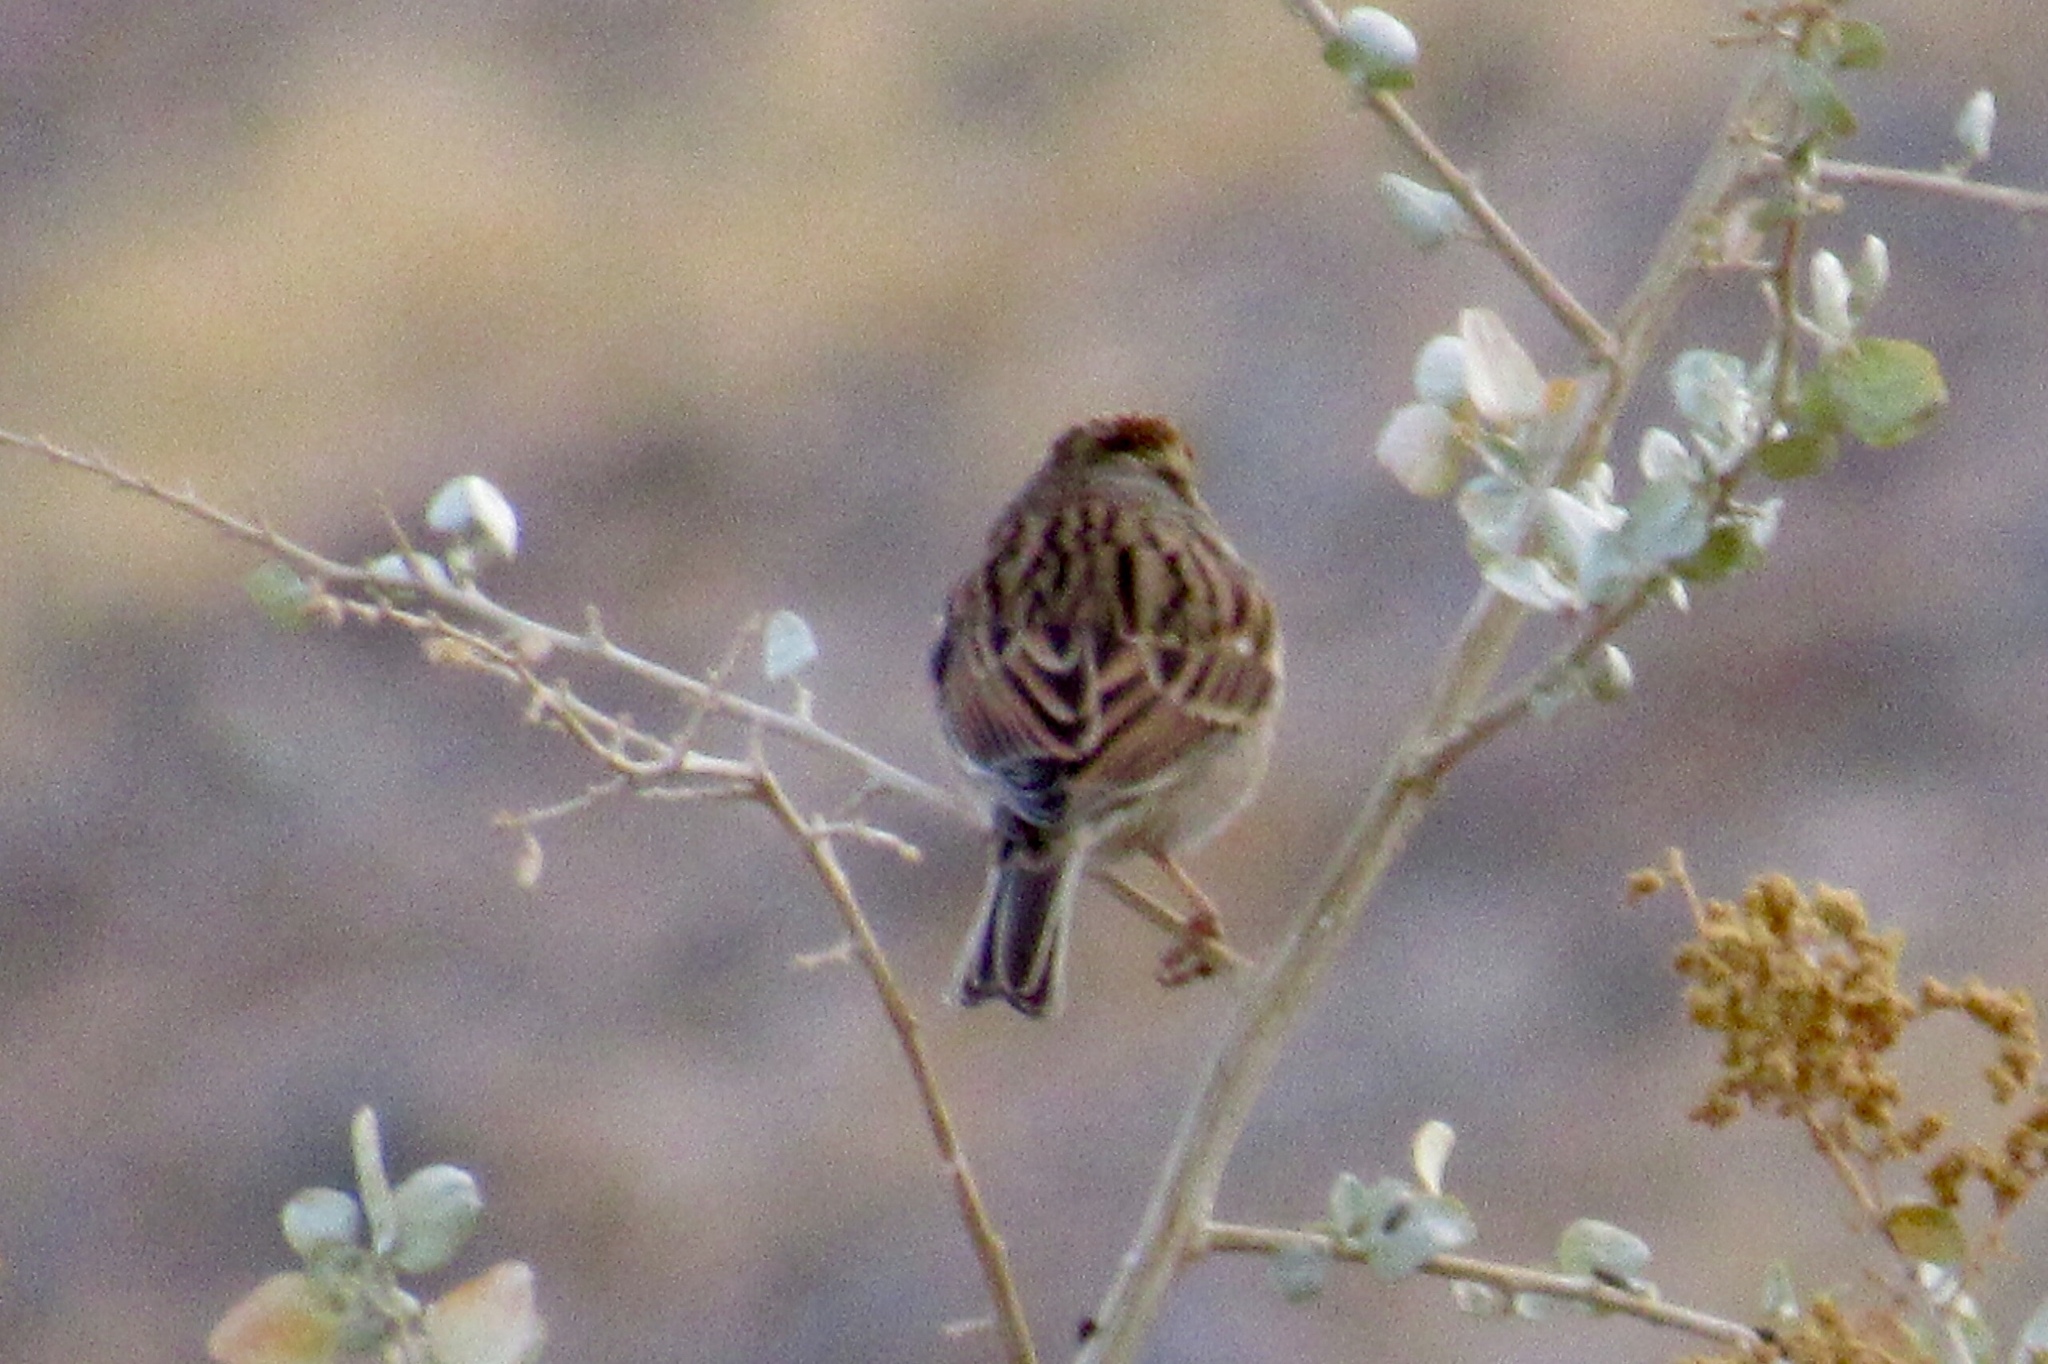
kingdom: Animalia
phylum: Chordata
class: Aves
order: Passeriformes
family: Passerellidae
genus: Spizella
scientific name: Spizella passerina
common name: Chipping sparrow
